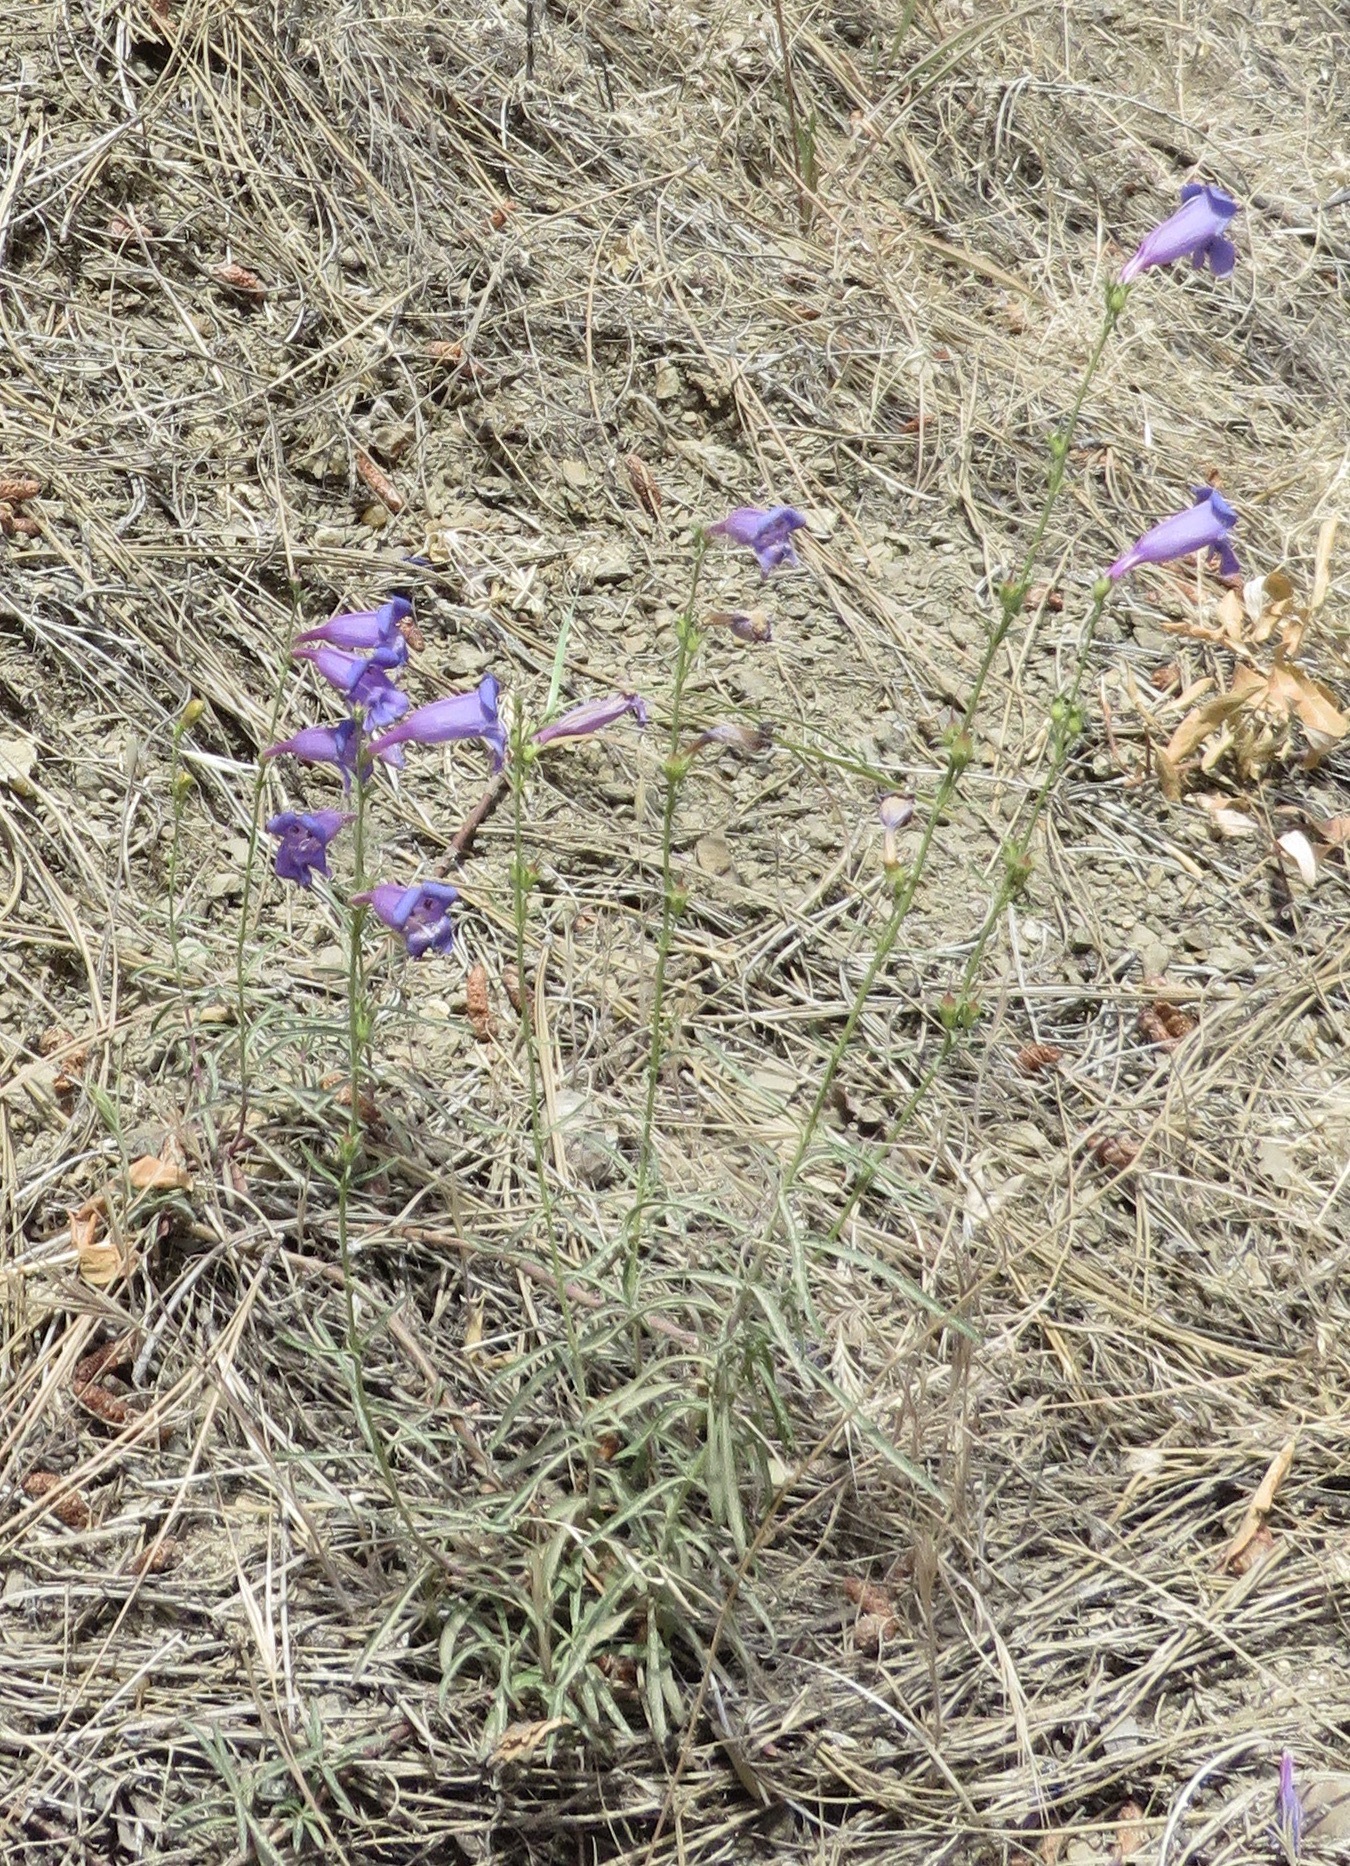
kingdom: Plantae
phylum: Tracheophyta
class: Magnoliopsida
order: Lamiales
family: Plantaginaceae
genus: Penstemon
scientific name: Penstemon heterophyllus
